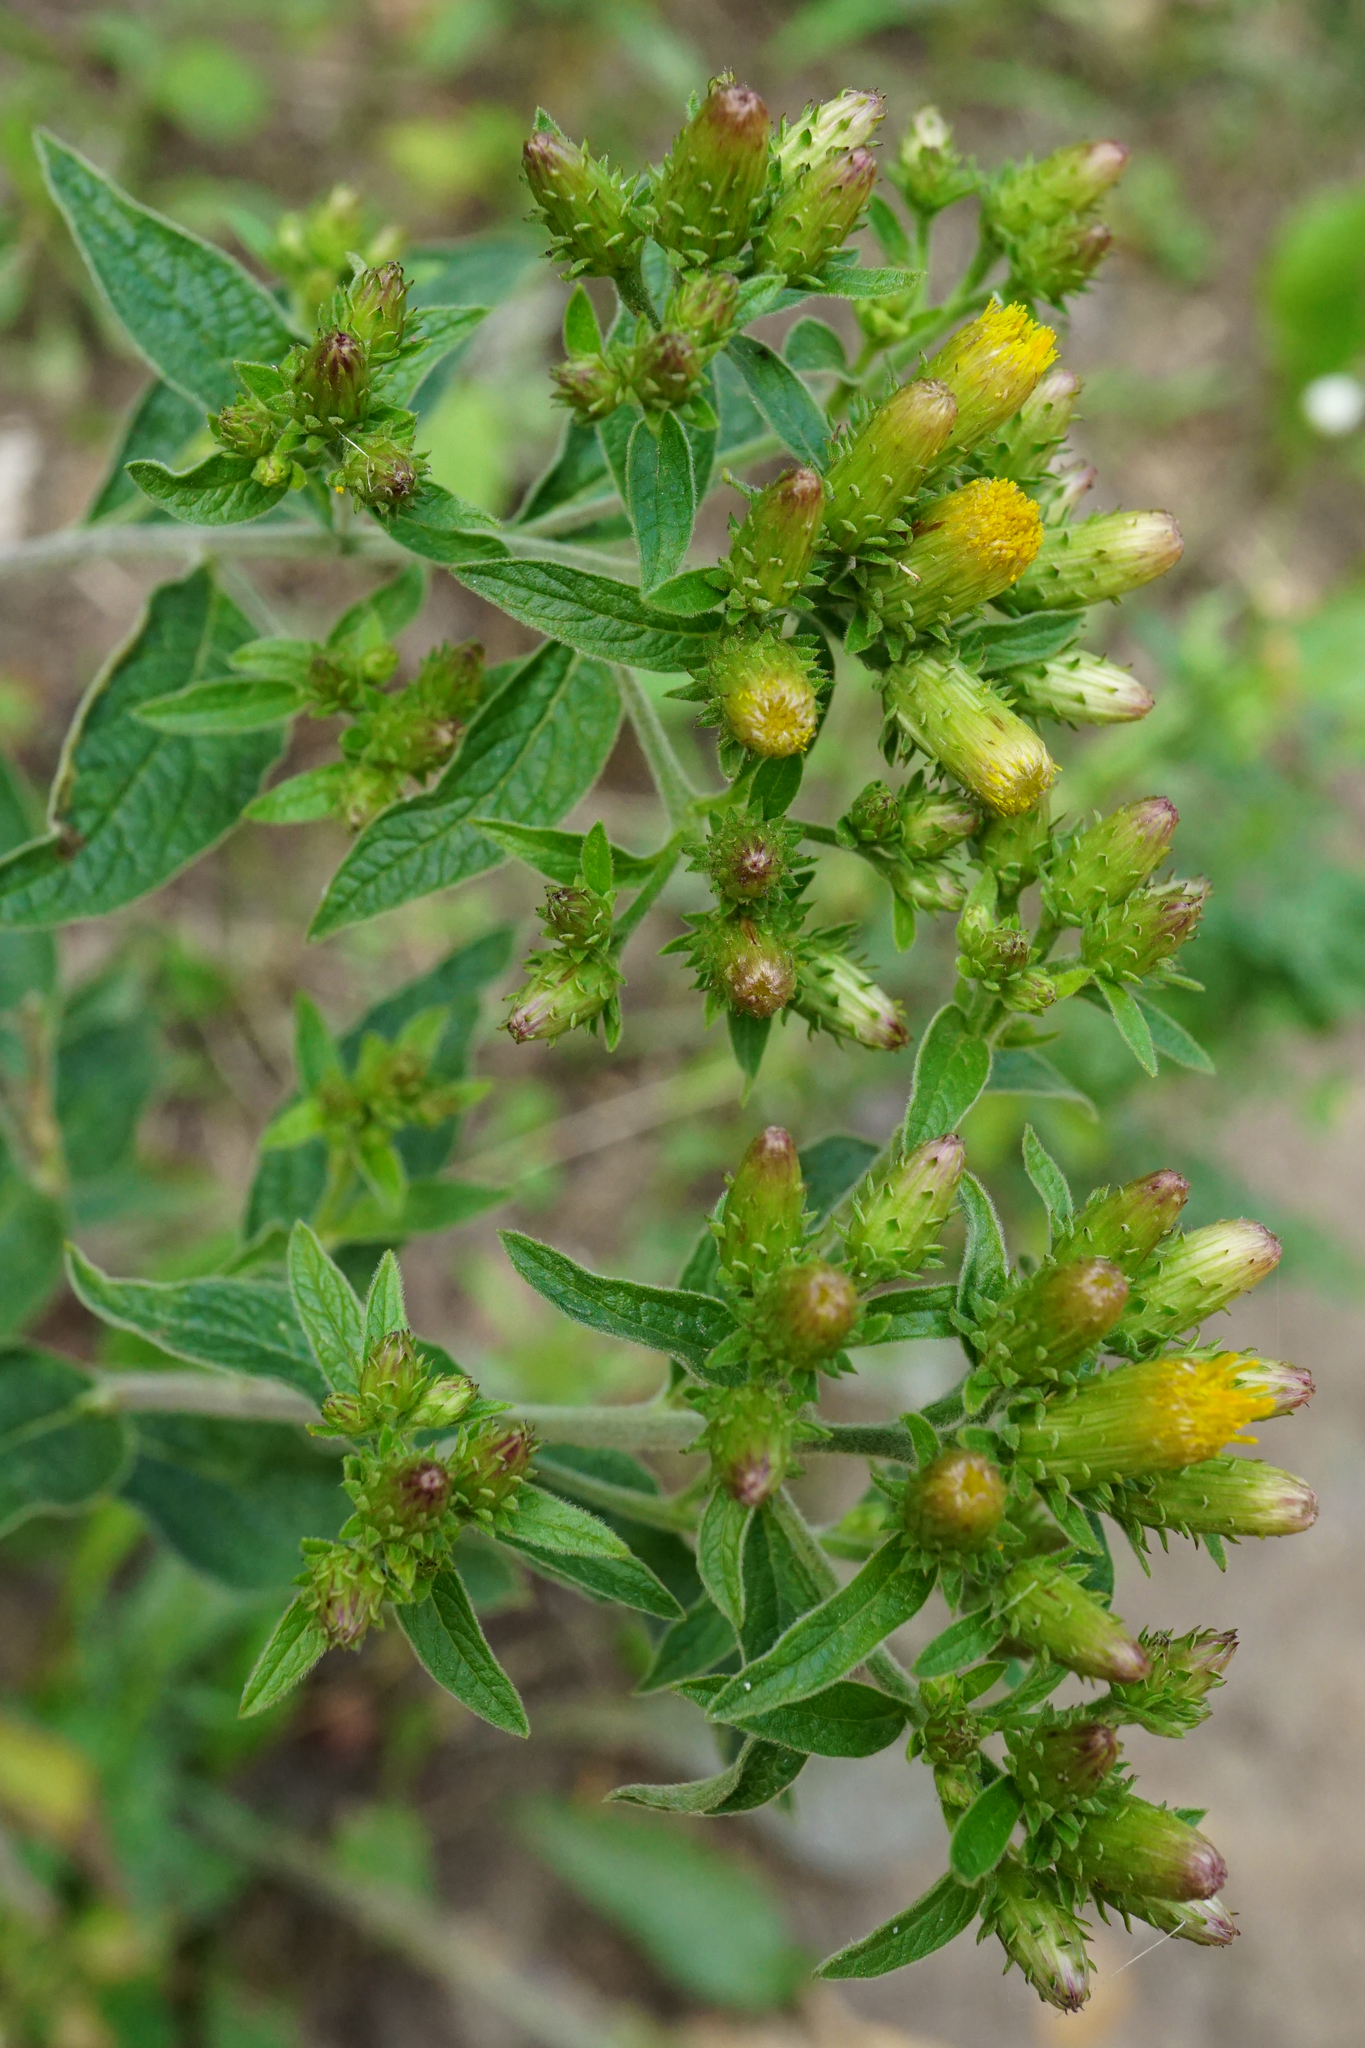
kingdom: Plantae
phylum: Tracheophyta
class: Magnoliopsida
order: Asterales
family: Asteraceae
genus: Pentanema
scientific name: Pentanema squarrosum
